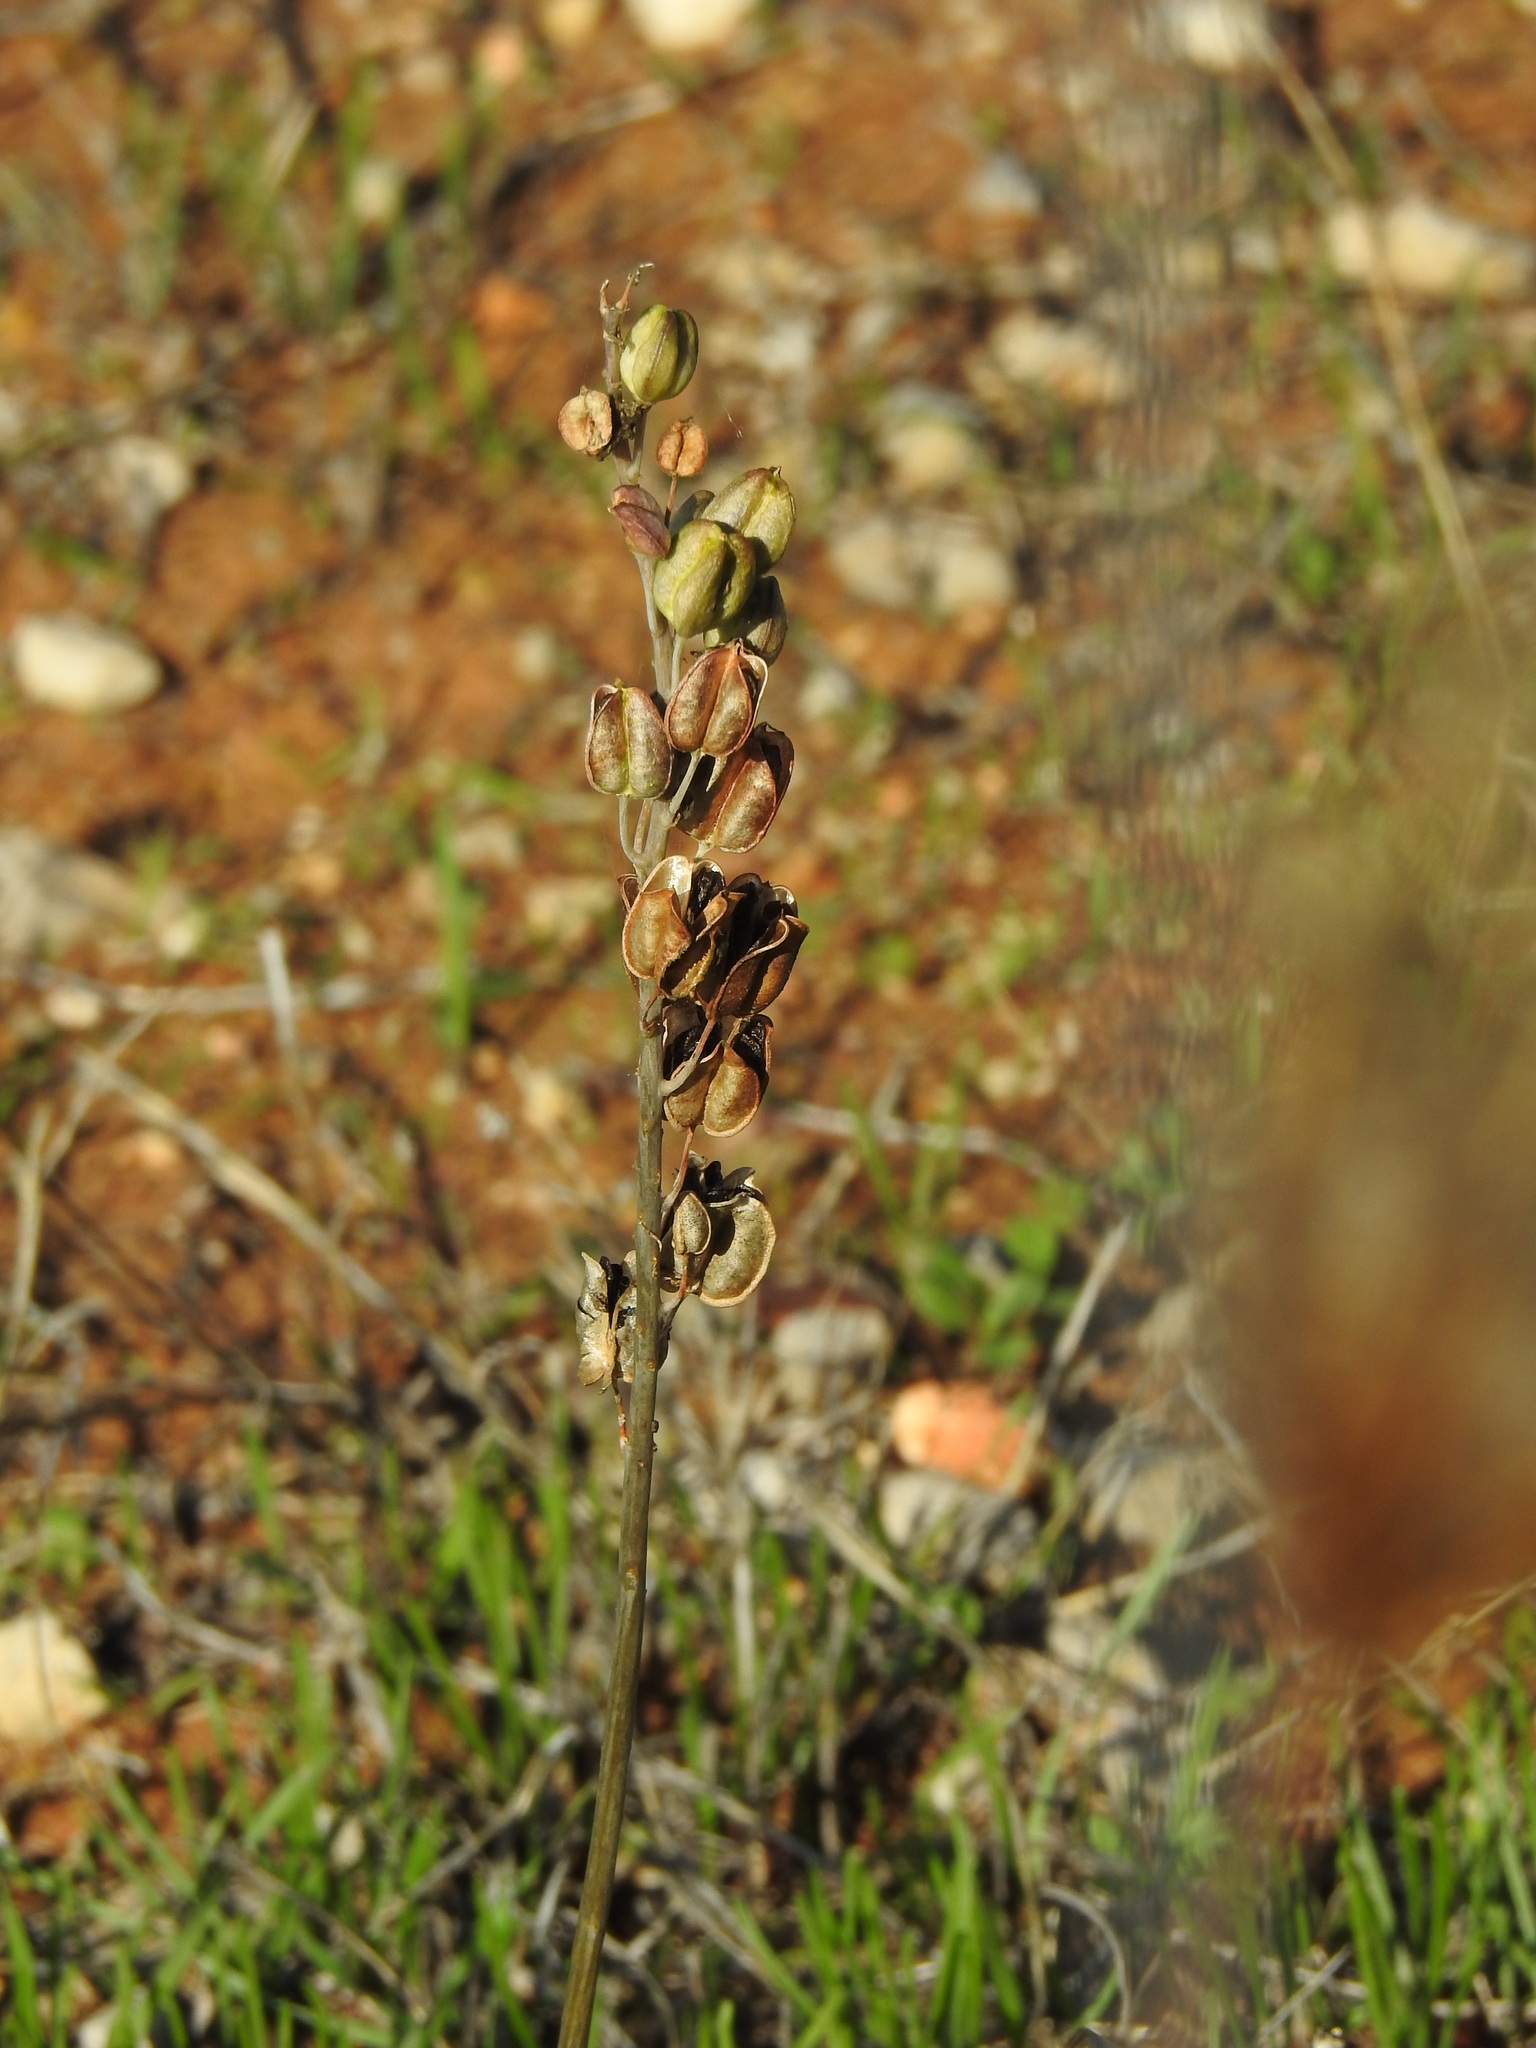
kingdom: Plantae
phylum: Tracheophyta
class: Liliopsida
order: Asparagales
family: Asparagaceae
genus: Drimia
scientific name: Drimia maritima
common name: Maritime squill
